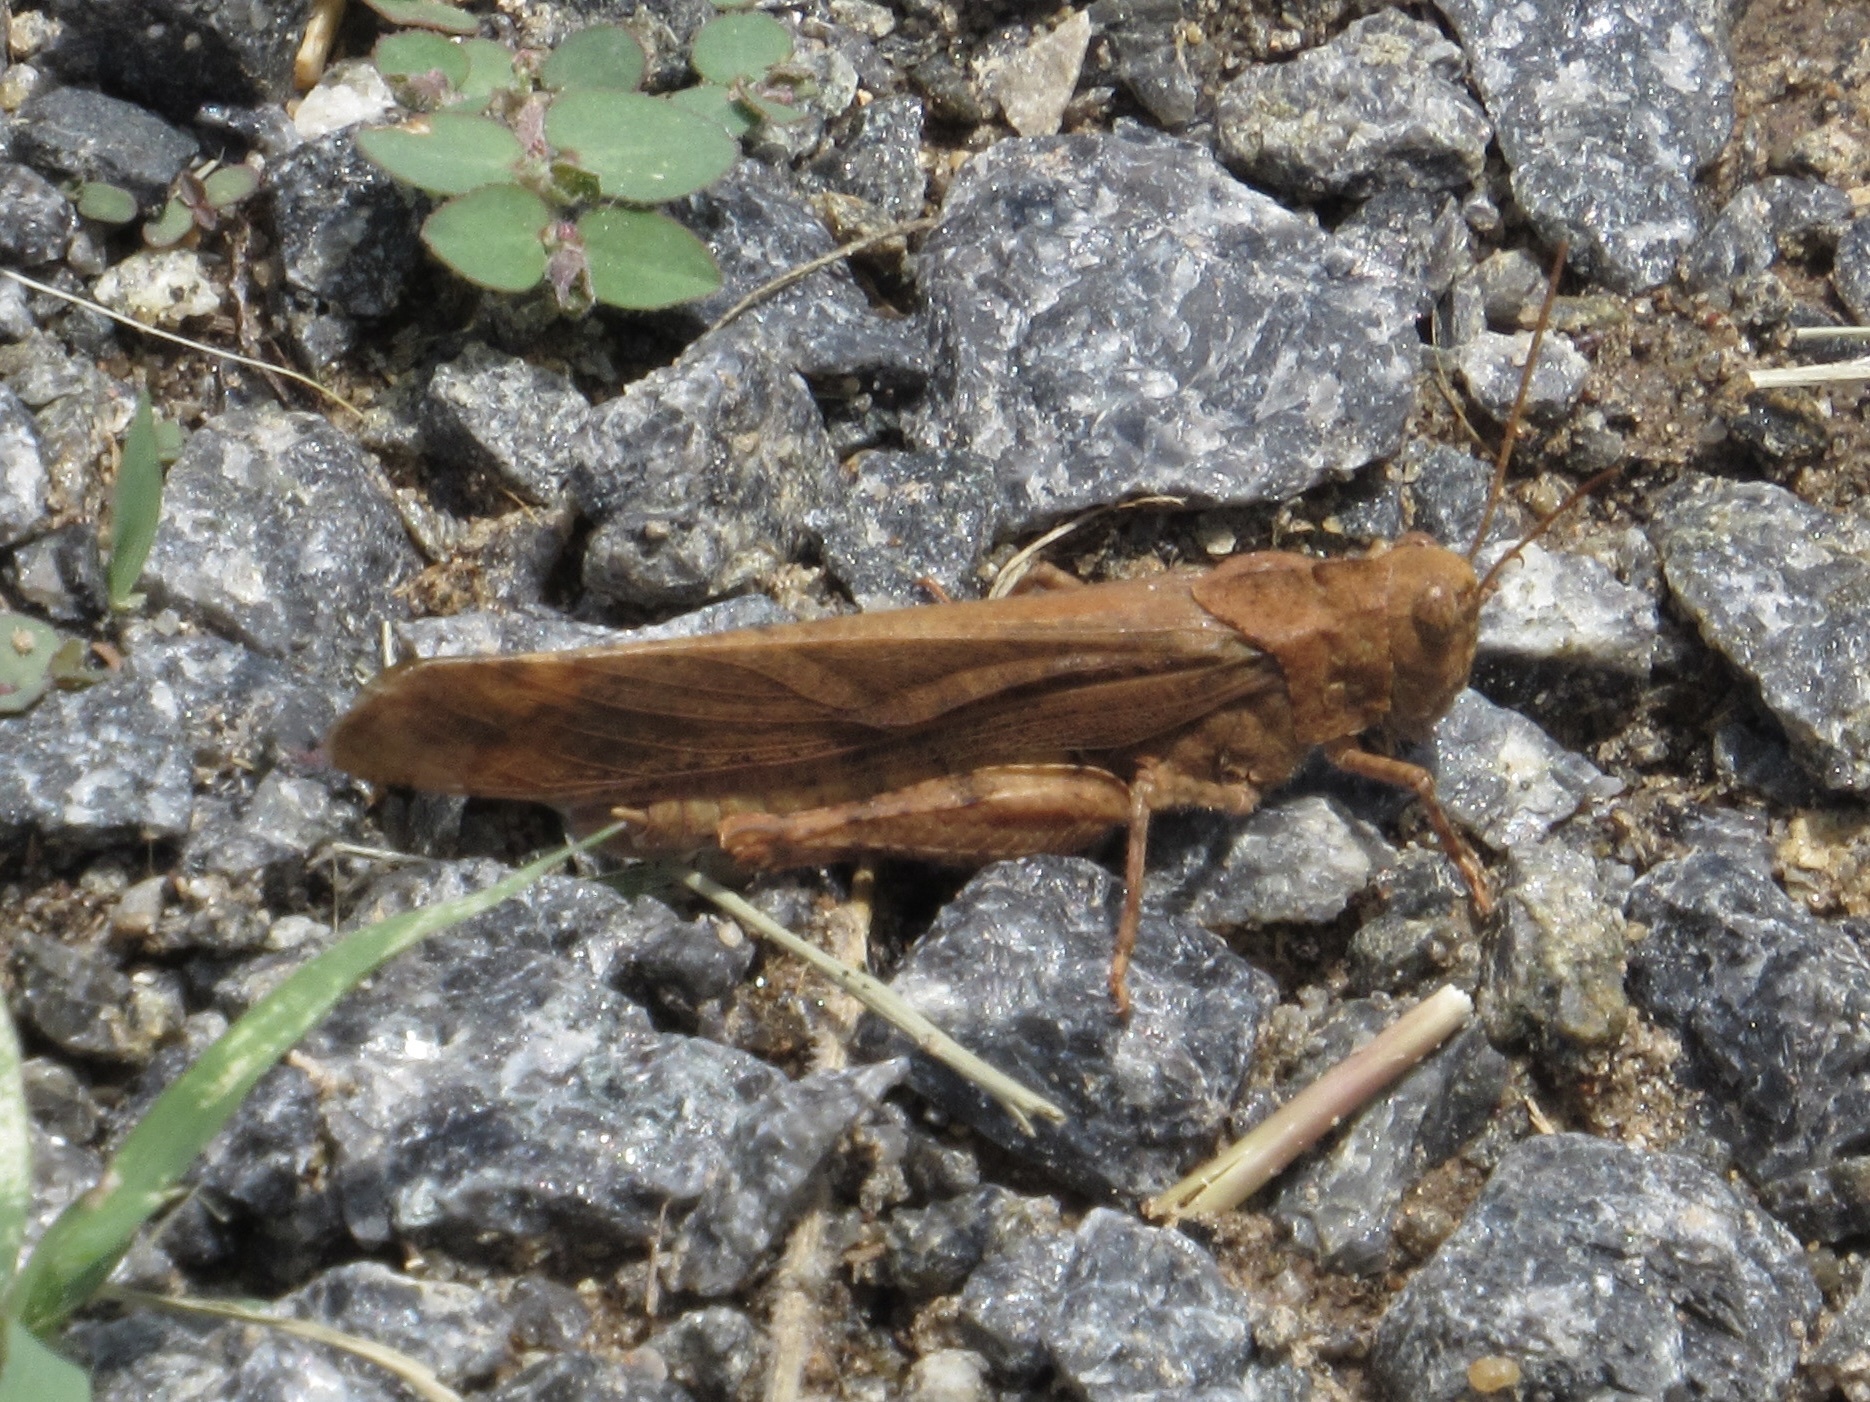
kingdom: Animalia
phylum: Arthropoda
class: Insecta
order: Orthoptera
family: Acrididae
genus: Dissosteira
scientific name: Dissosteira carolina
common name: Carolina grasshopper
